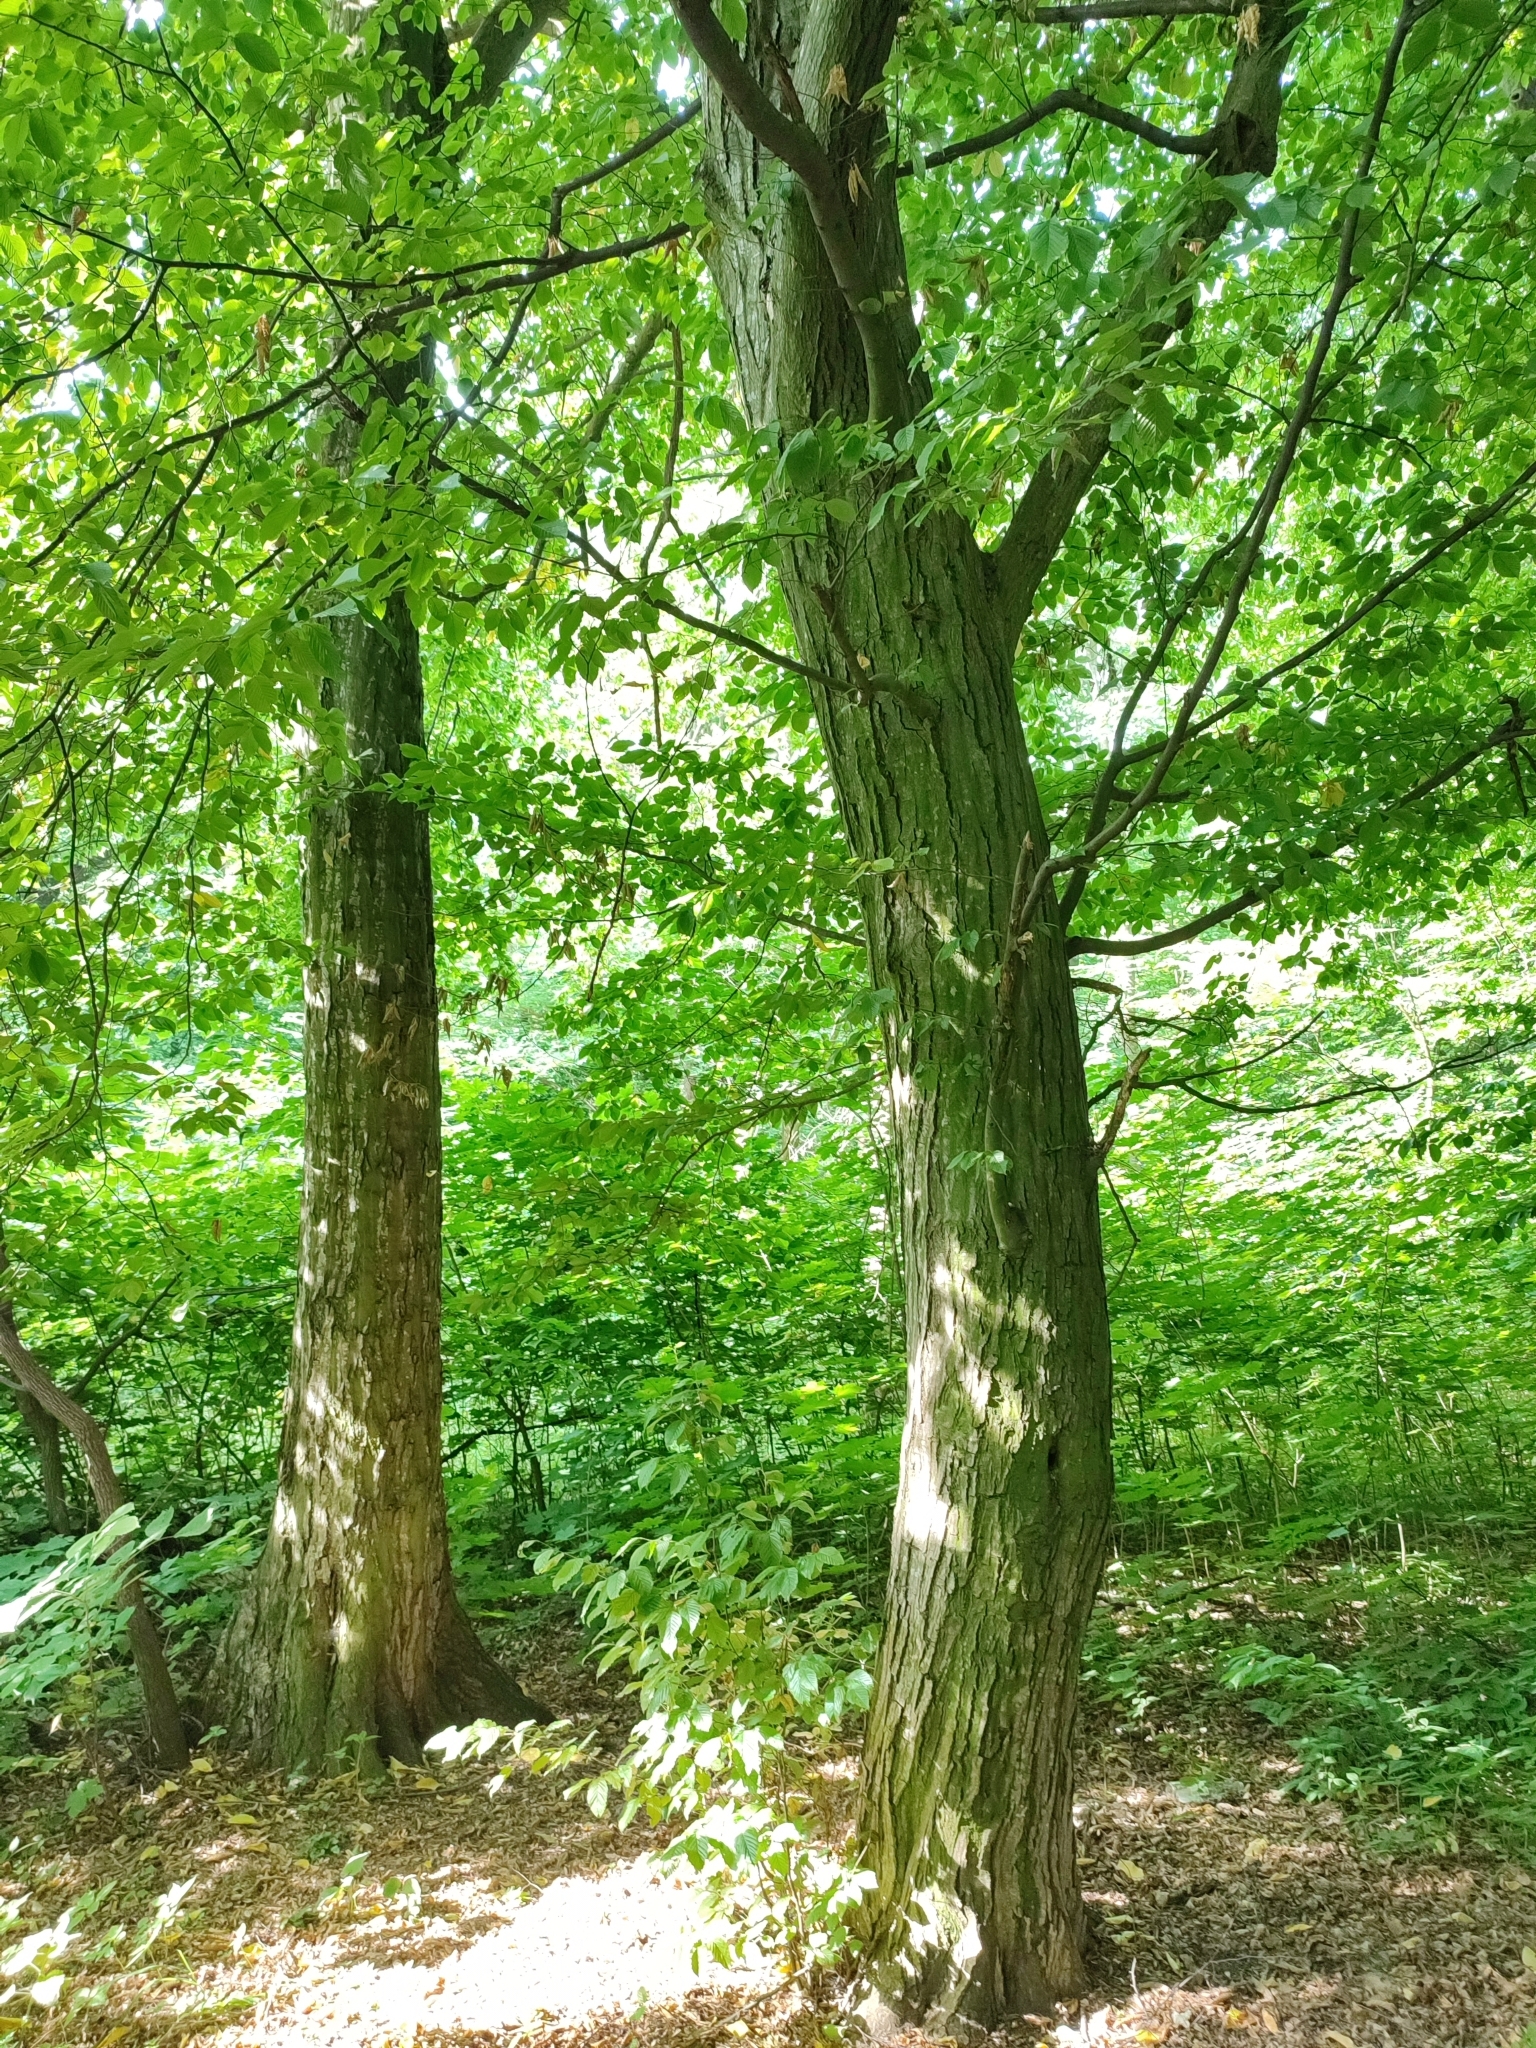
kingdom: Plantae
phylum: Tracheophyta
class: Magnoliopsida
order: Fagales
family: Betulaceae
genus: Carpinus
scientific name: Carpinus betulus
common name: Hornbeam
